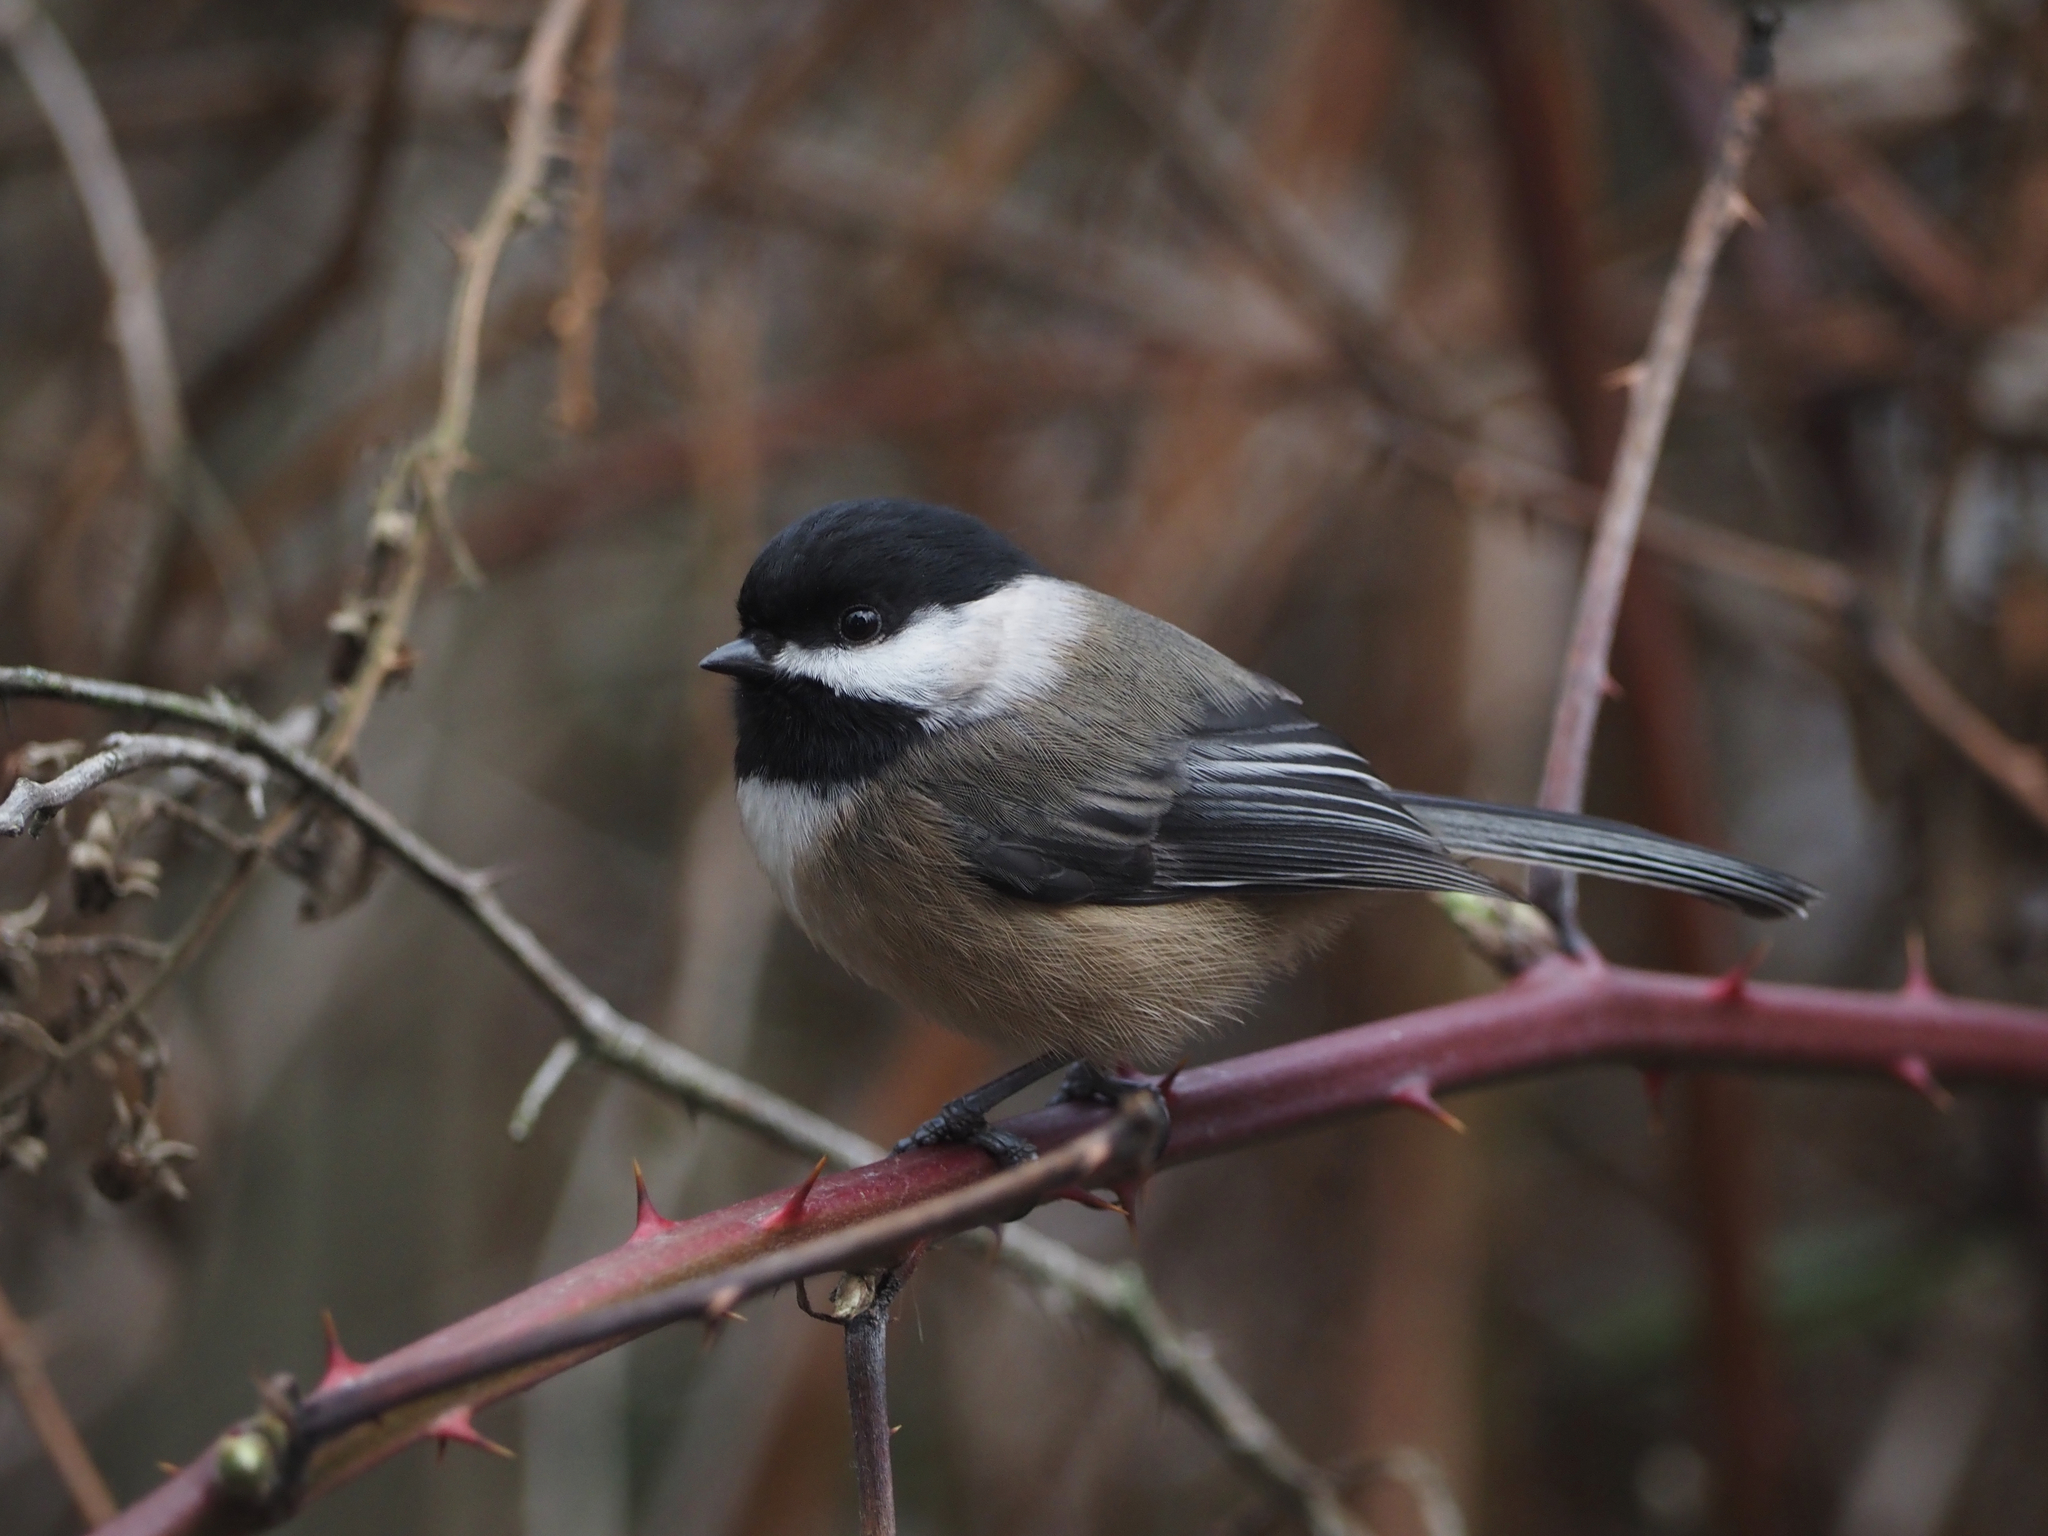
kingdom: Animalia
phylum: Chordata
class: Aves
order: Passeriformes
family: Paridae
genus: Poecile
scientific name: Poecile atricapillus
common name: Black-capped chickadee
